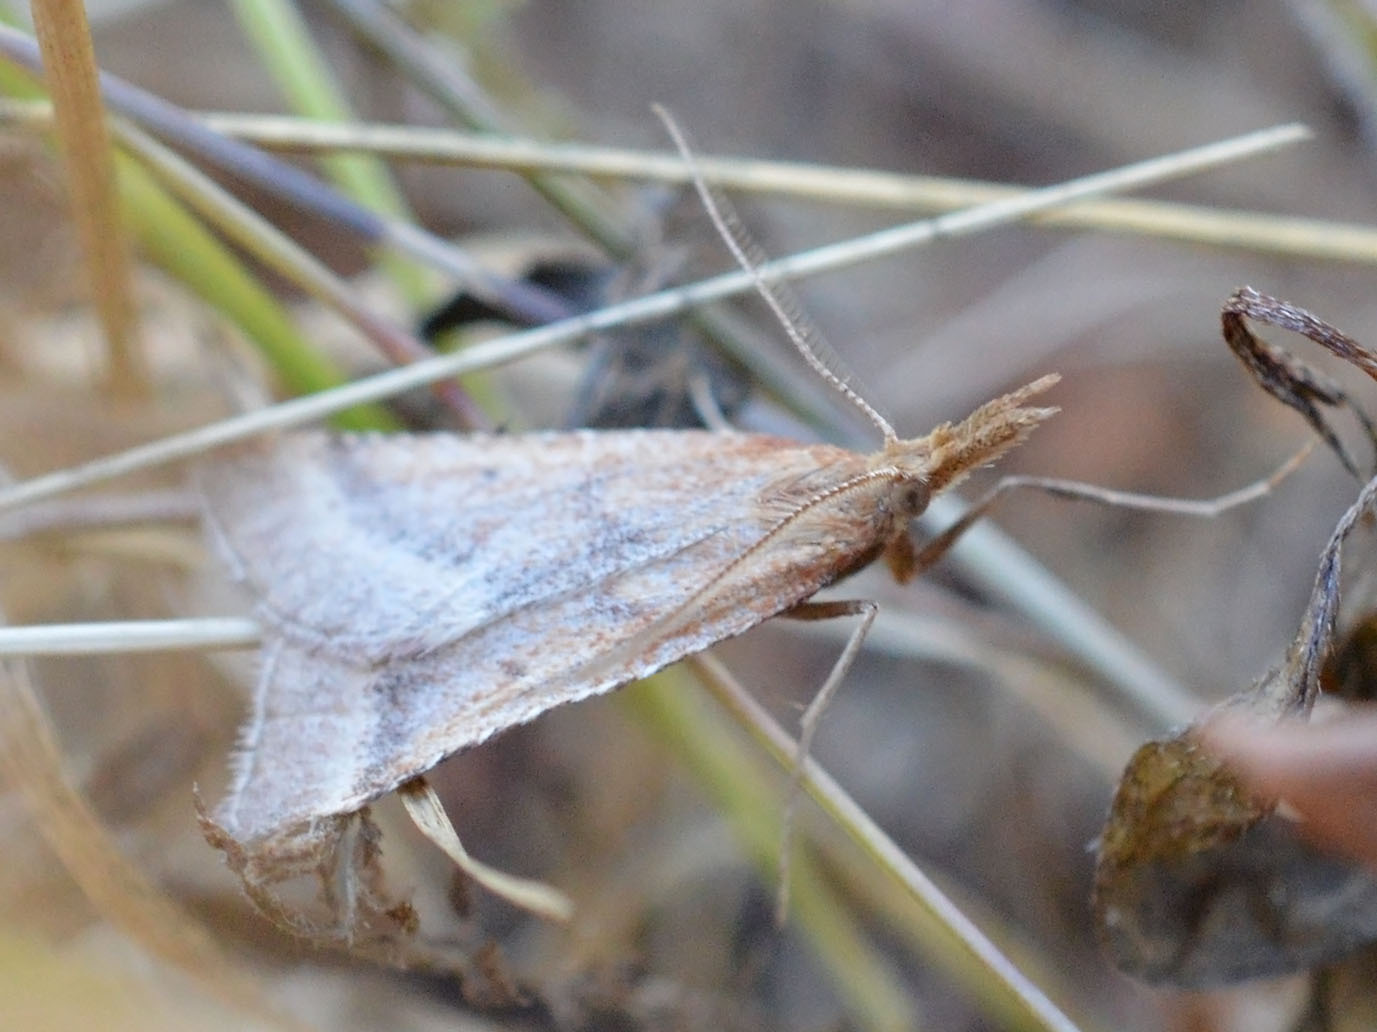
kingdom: Animalia
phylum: Arthropoda
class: Insecta
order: Lepidoptera
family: Pyralidae
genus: Synaphe
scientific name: Synaphe punctalis
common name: Long-legged tabby
